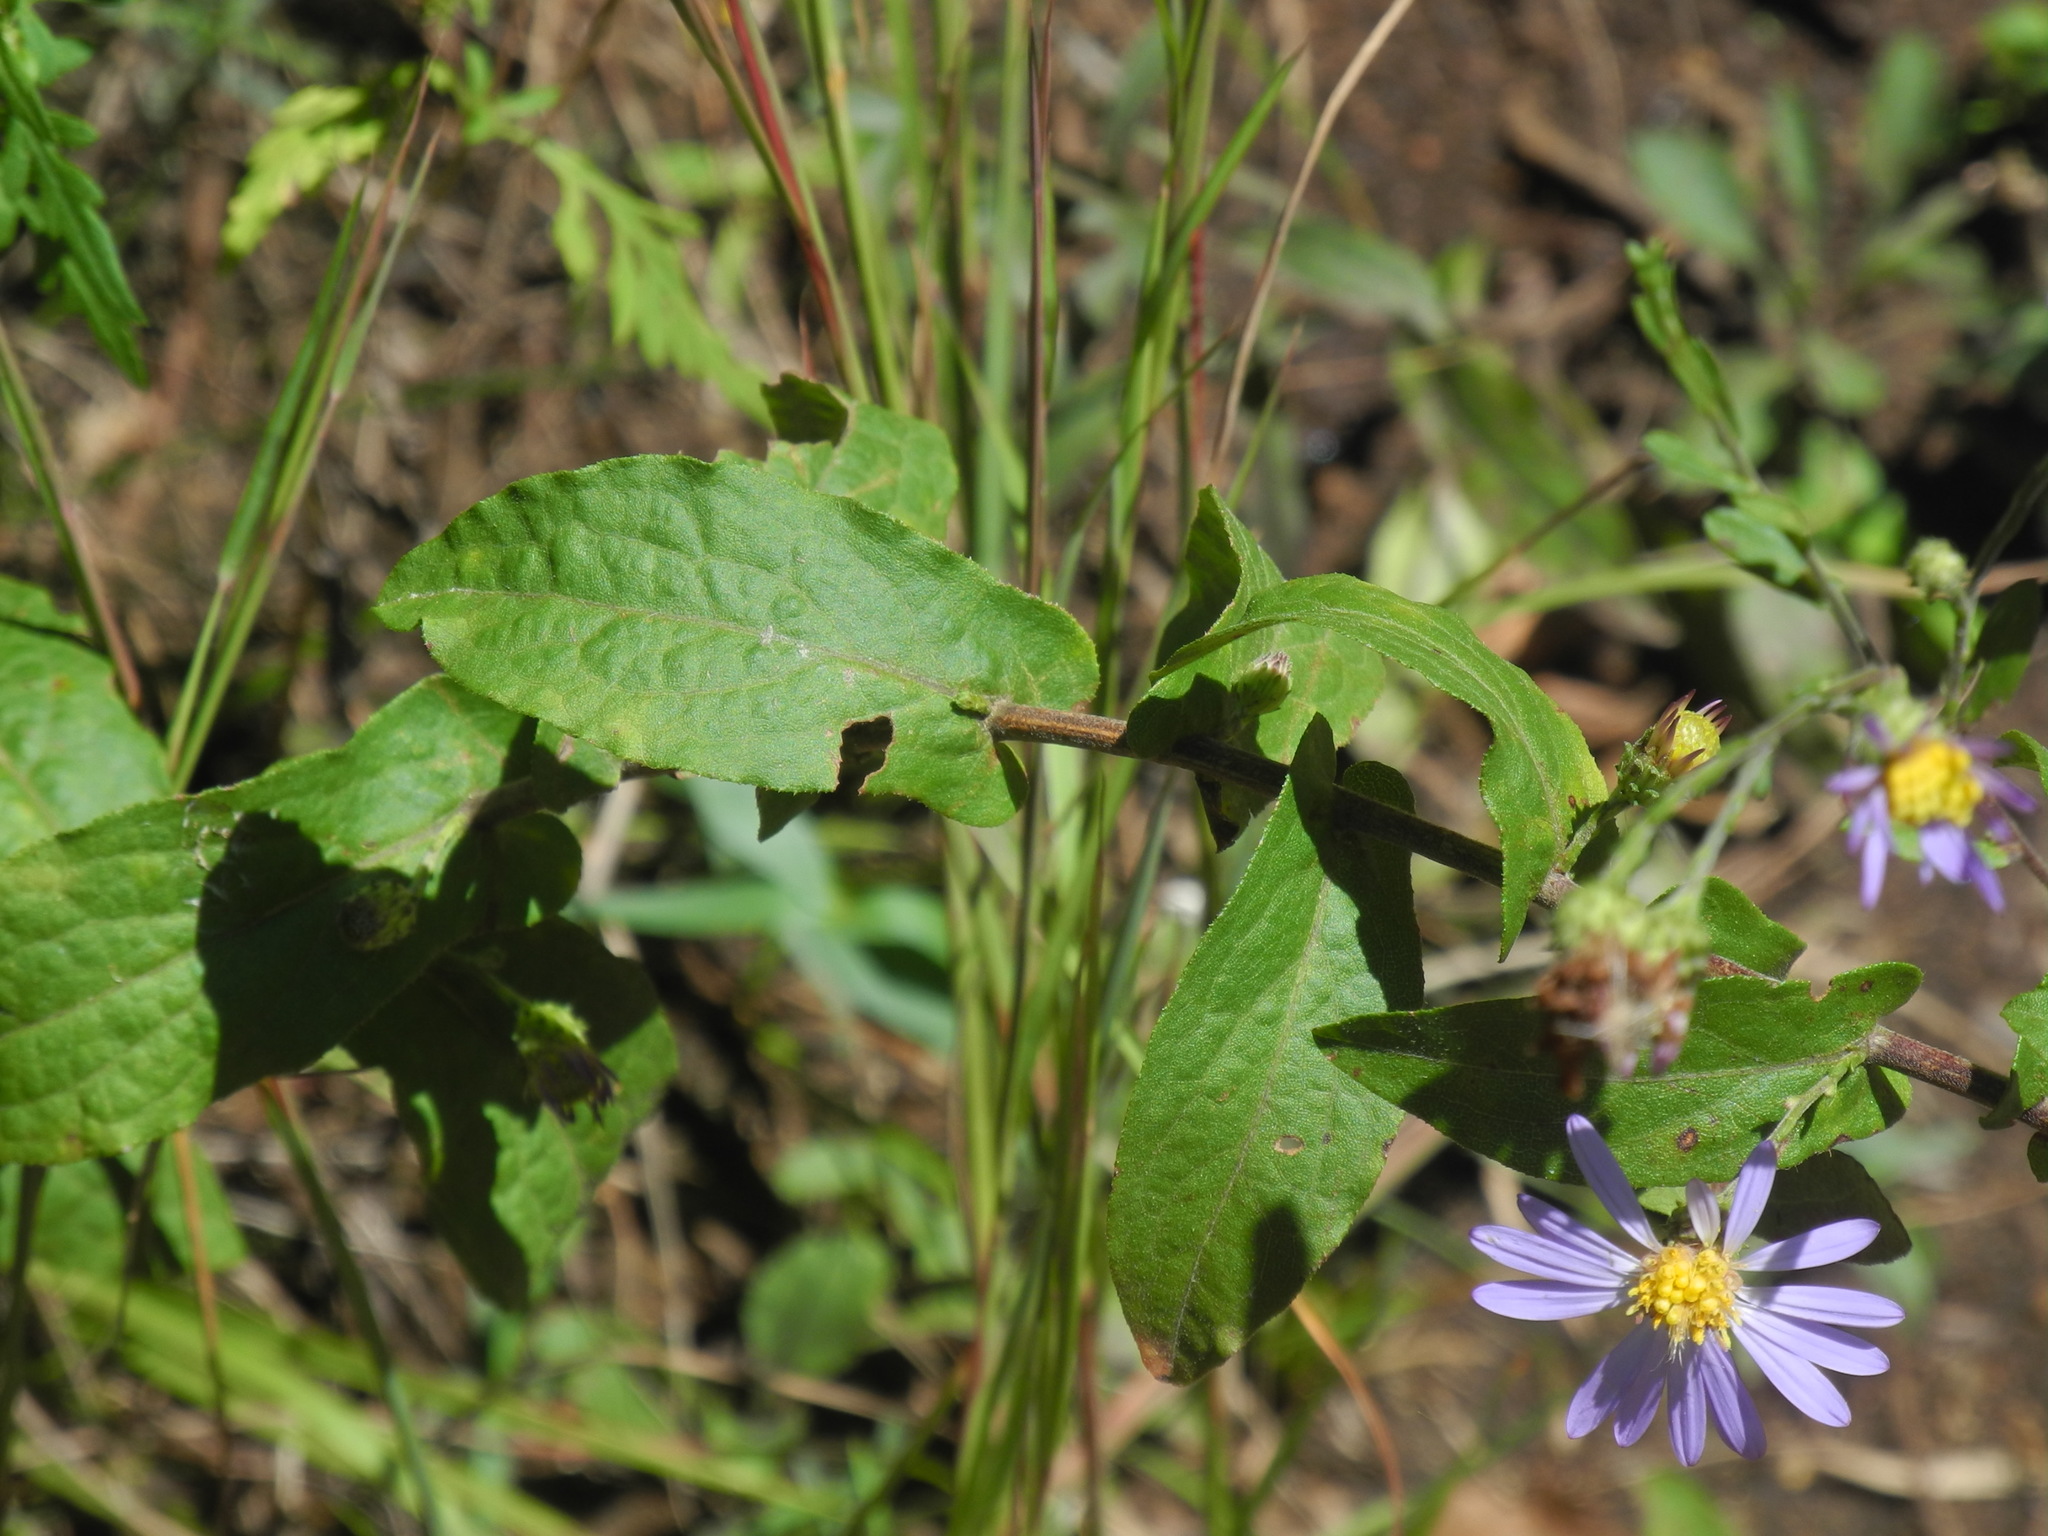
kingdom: Plantae
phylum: Tracheophyta
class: Magnoliopsida
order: Asterales
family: Asteraceae
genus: Symphyotrichum
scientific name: Symphyotrichum patens
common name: Late purple aster
